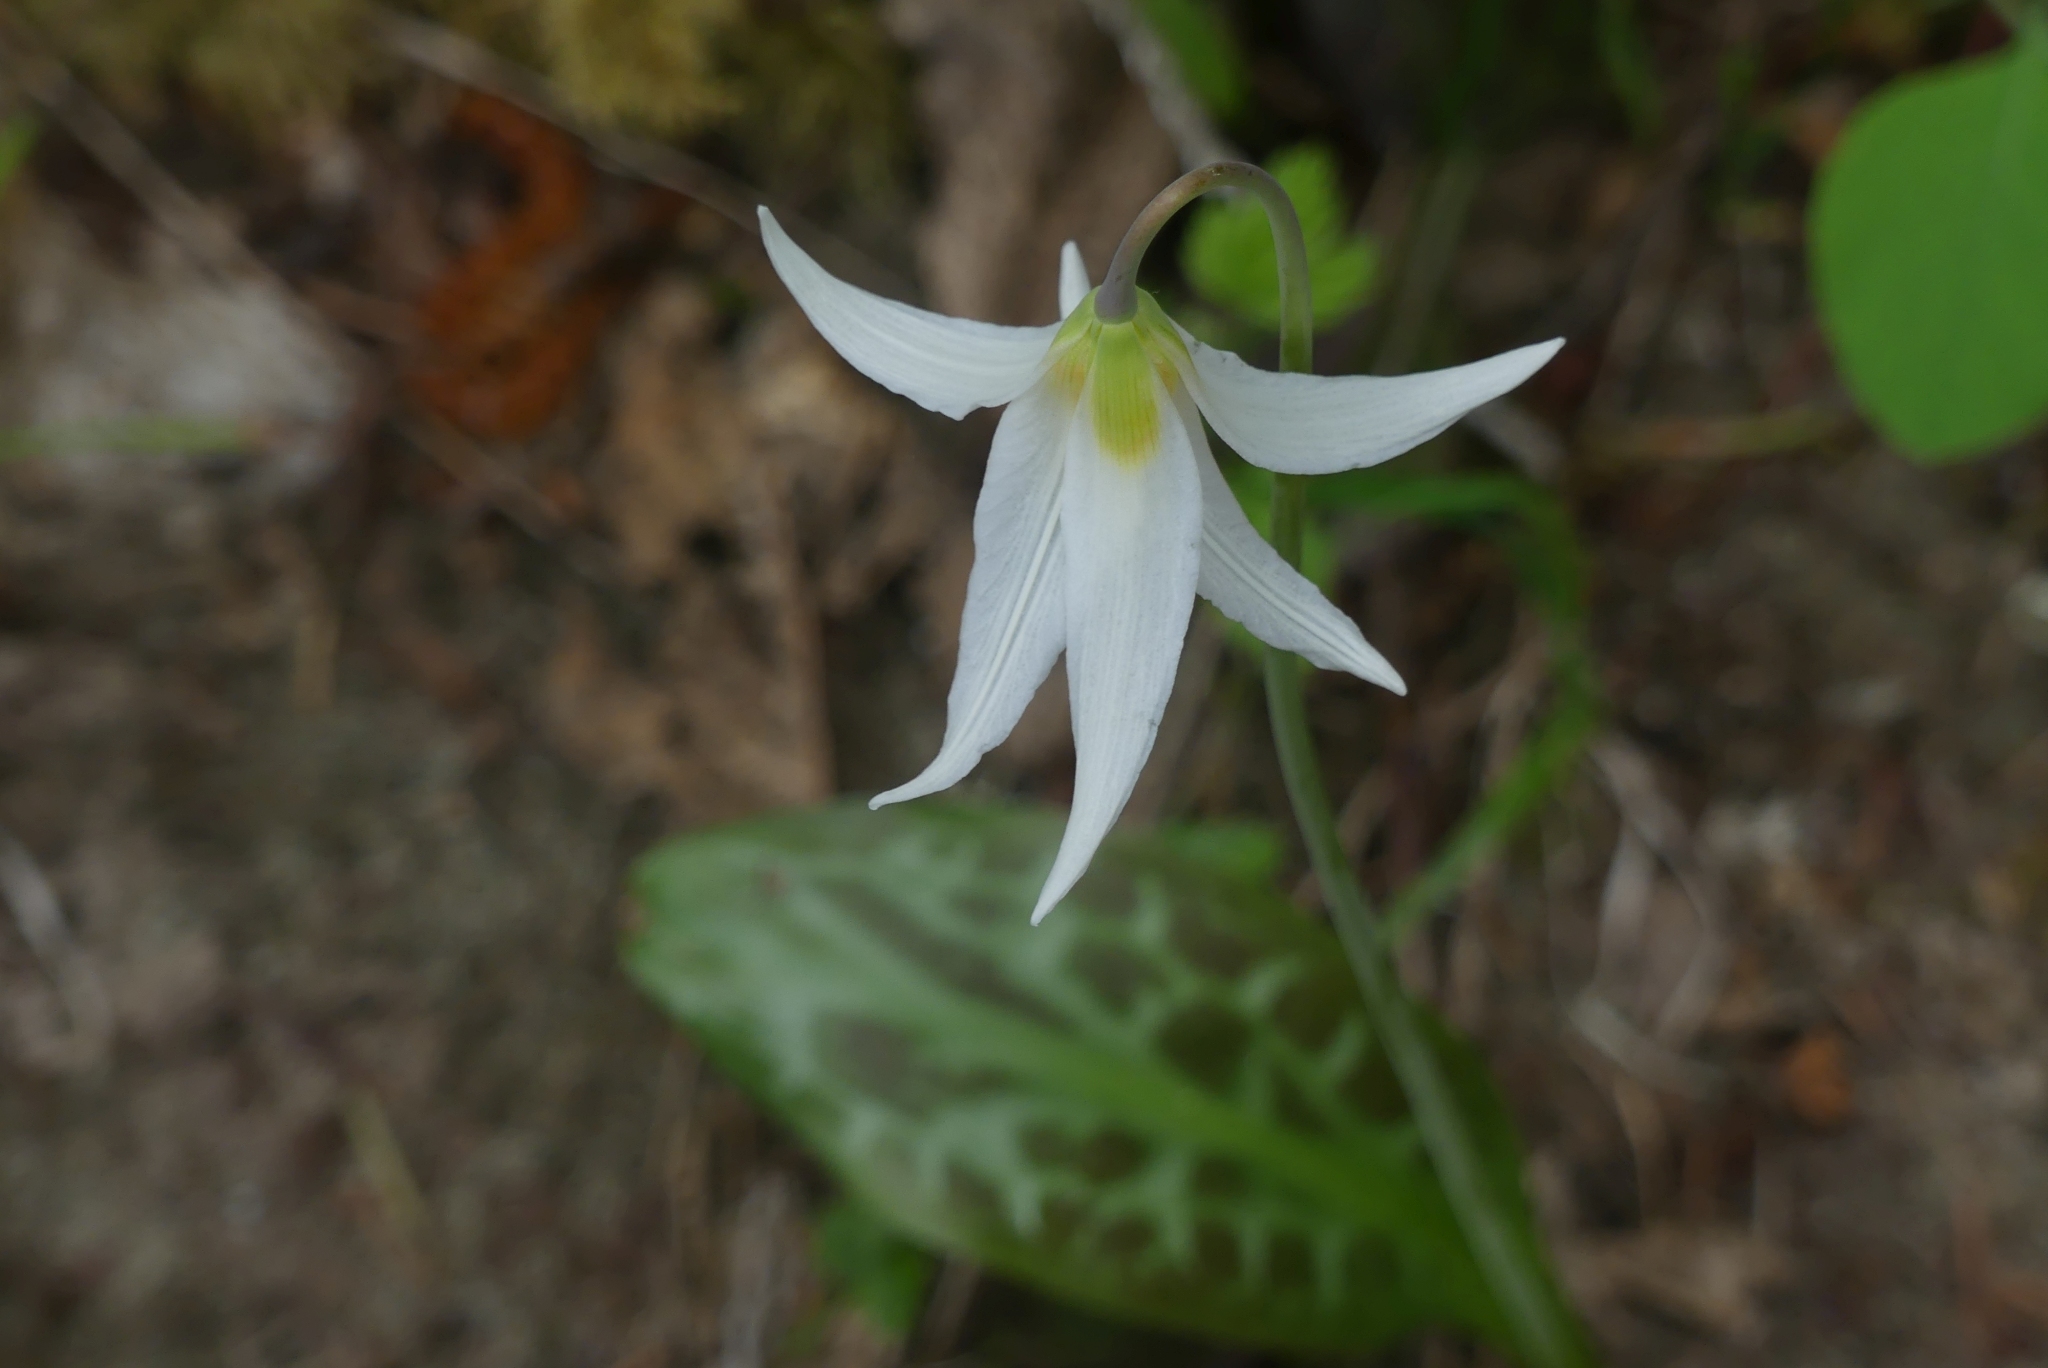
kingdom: Plantae
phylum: Tracheophyta
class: Liliopsida
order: Liliales
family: Liliaceae
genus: Erythronium
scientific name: Erythronium oregonum
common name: Giant adder's-tongue
